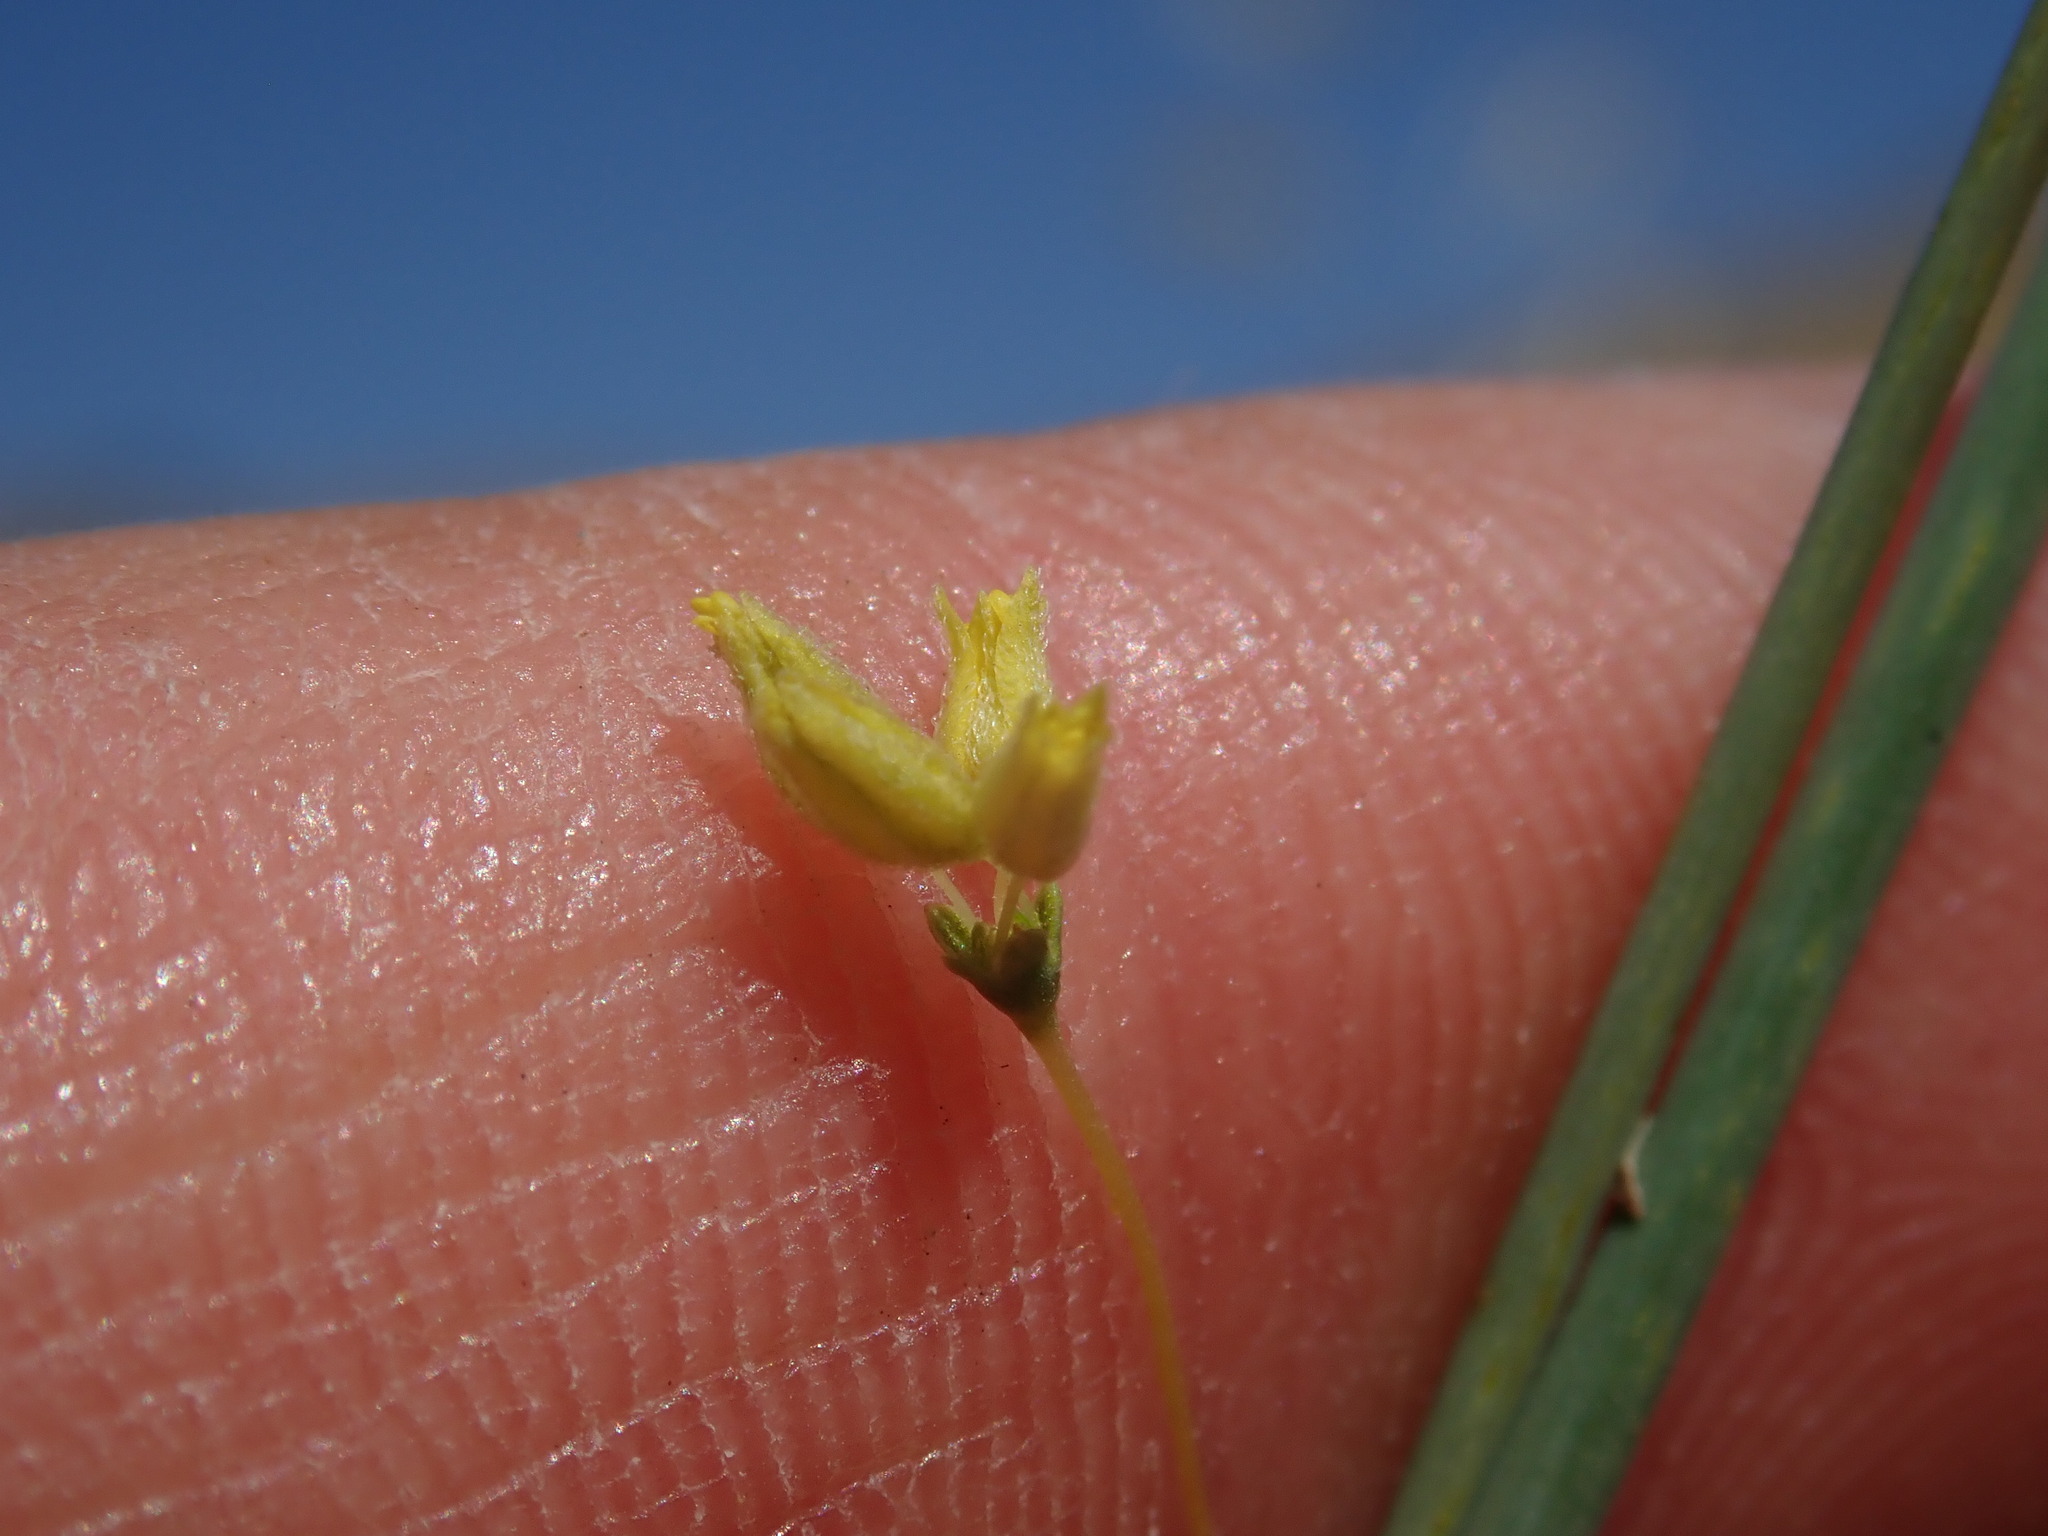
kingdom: Plantae
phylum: Tracheophyta
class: Magnoliopsida
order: Caryophyllales
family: Polygonaceae
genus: Eriogonum
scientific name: Eriogonum clavatum
